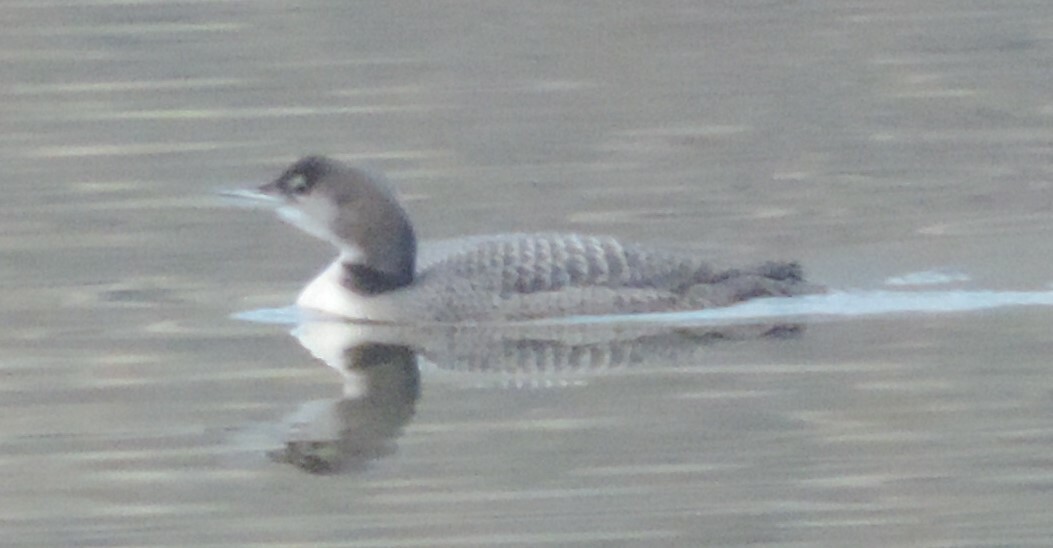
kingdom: Animalia
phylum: Chordata
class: Aves
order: Gaviiformes
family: Gaviidae
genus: Gavia
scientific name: Gavia immer
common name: Common loon
